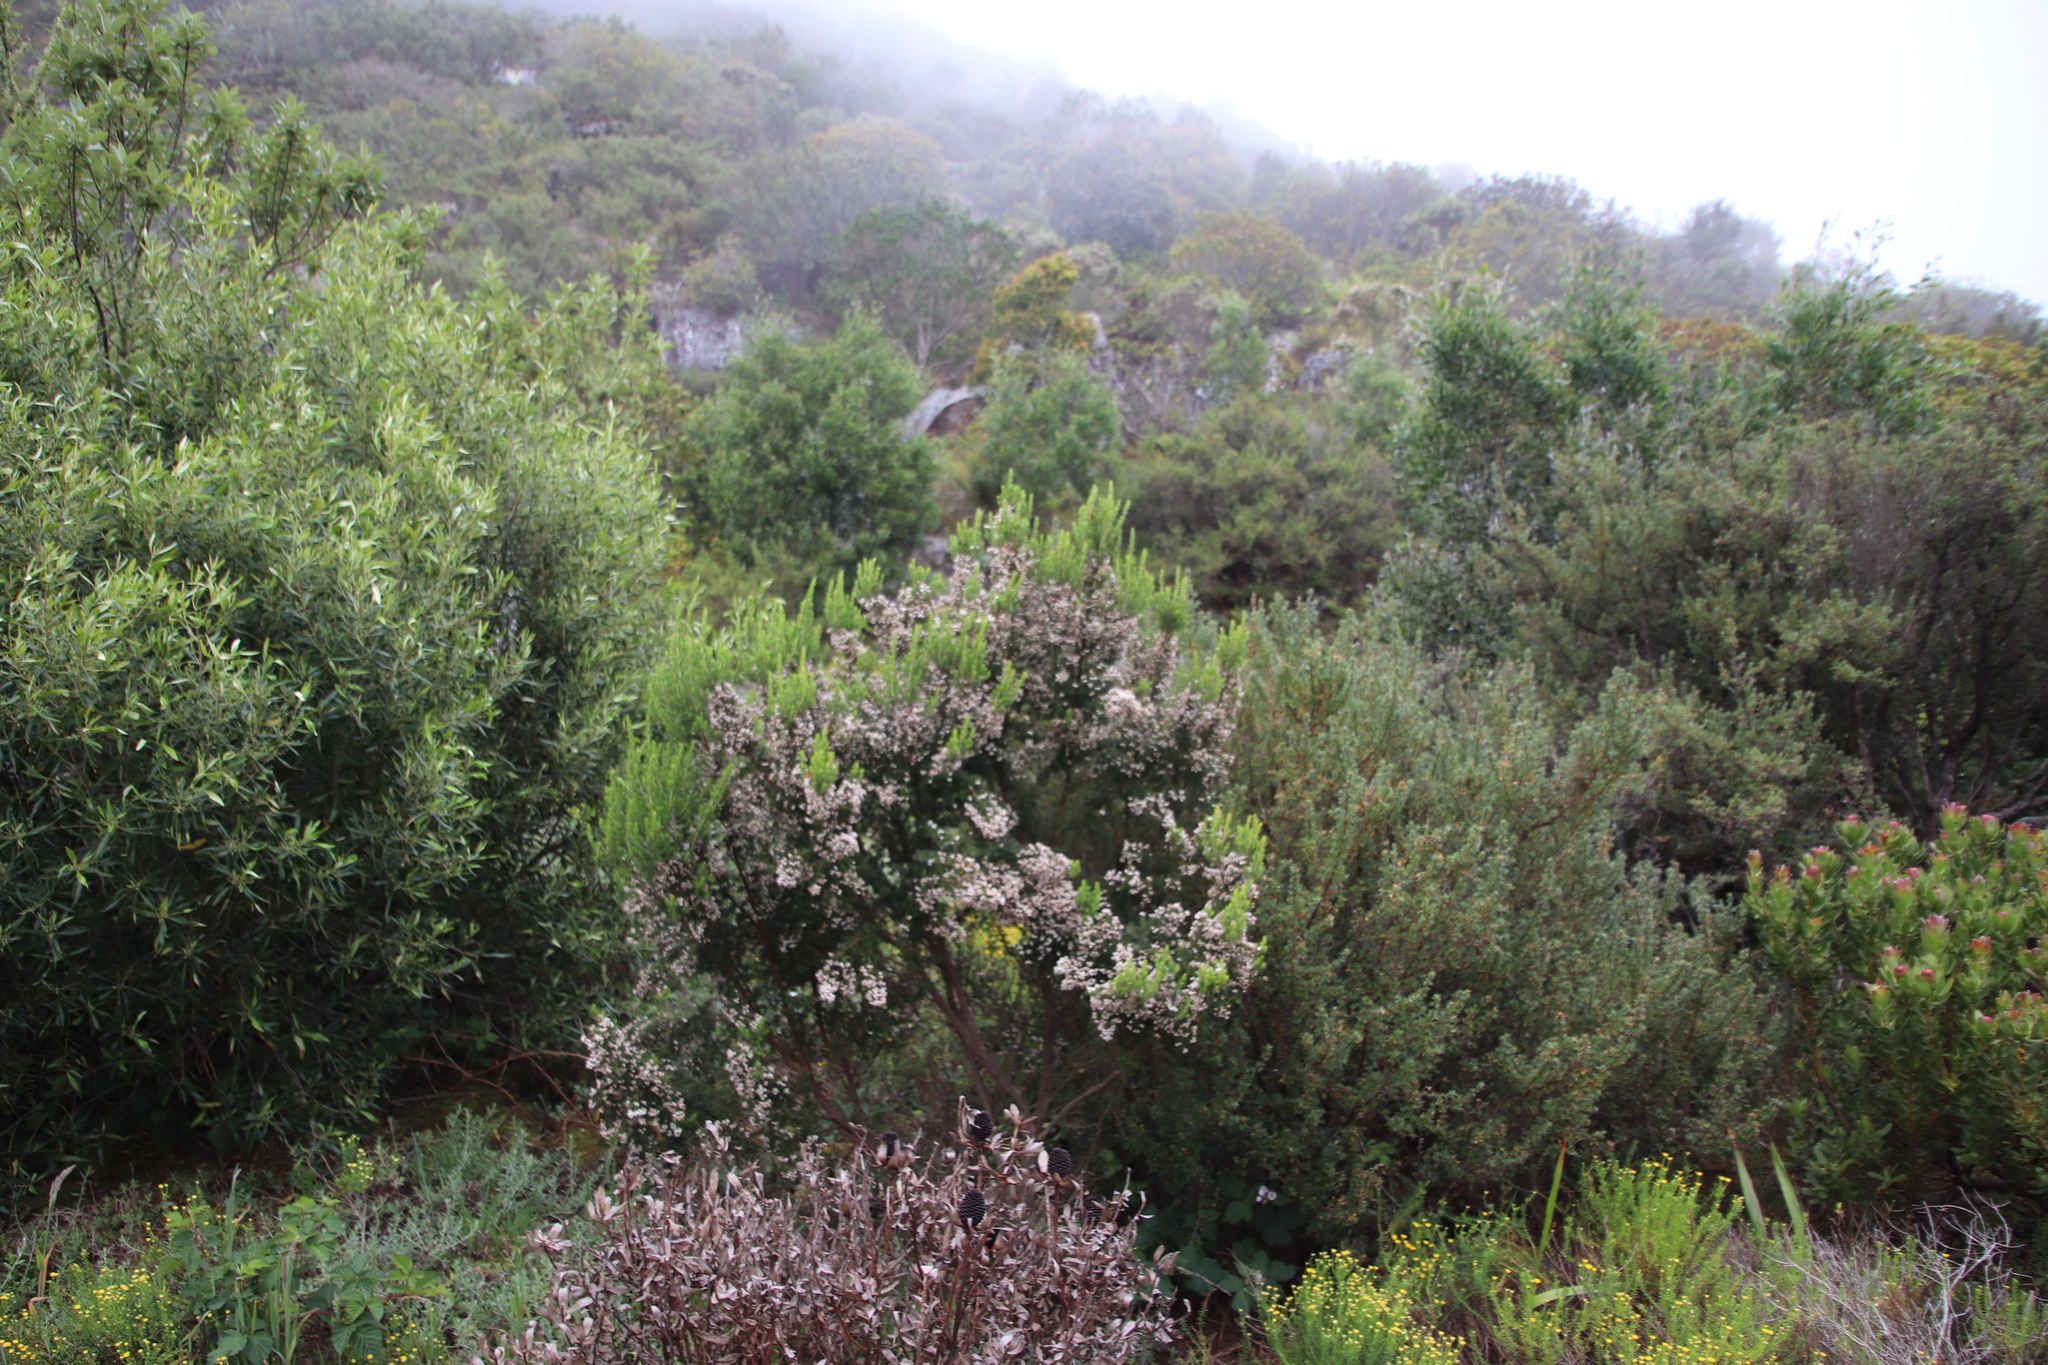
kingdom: Plantae
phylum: Tracheophyta
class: Magnoliopsida
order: Ericales
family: Ericaceae
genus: Erica
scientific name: Erica triflora
